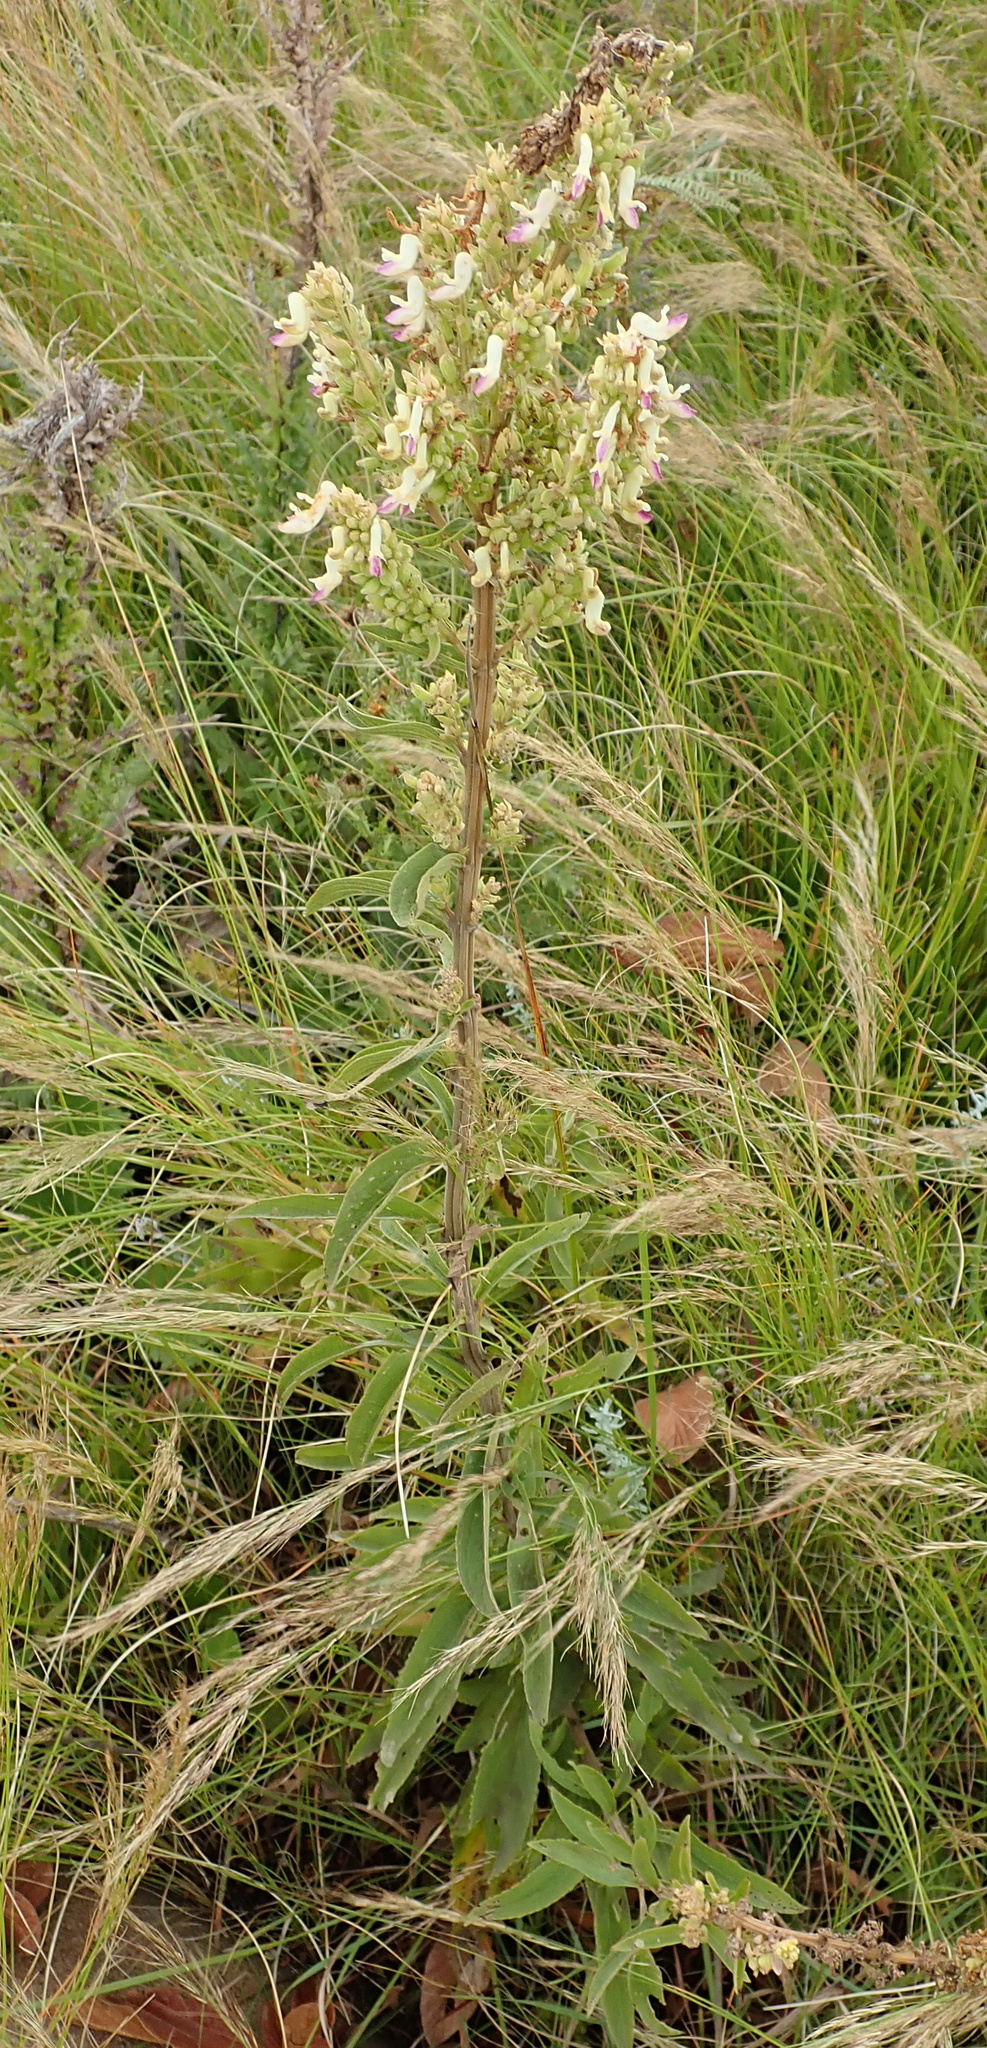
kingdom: Plantae
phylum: Tracheophyta
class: Magnoliopsida
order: Lamiales
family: Lamiaceae
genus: Coleus
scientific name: Coleus calycinus
